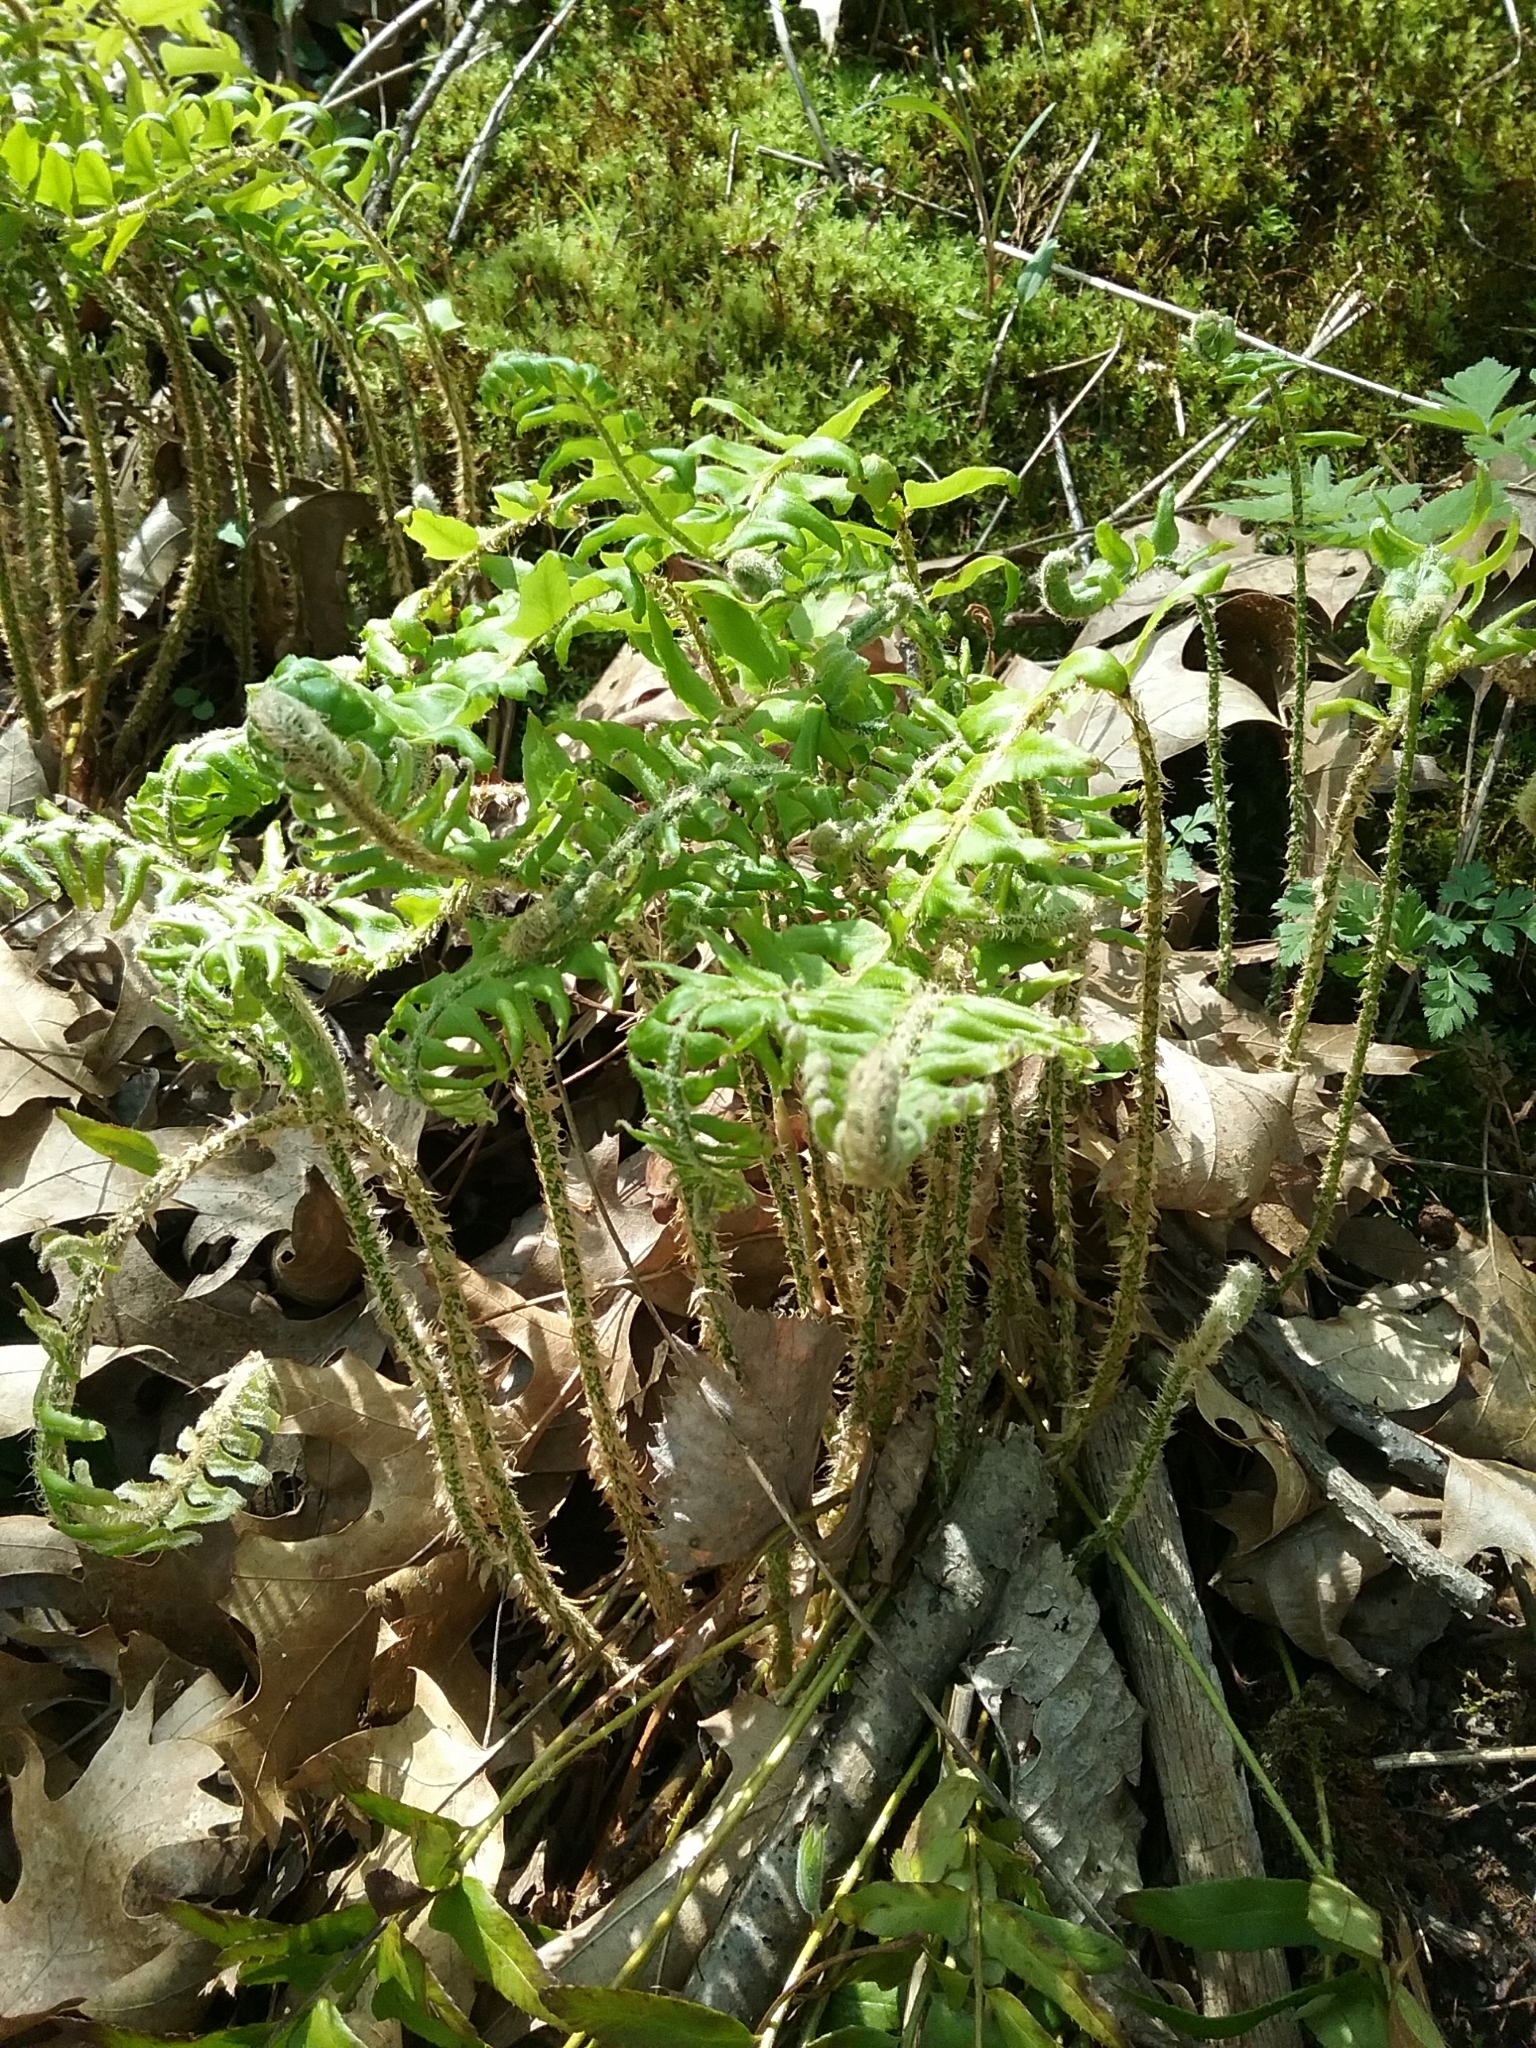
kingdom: Plantae
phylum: Tracheophyta
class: Polypodiopsida
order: Polypodiales
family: Dryopteridaceae
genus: Polystichum
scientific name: Polystichum acrostichoides
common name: Christmas fern
